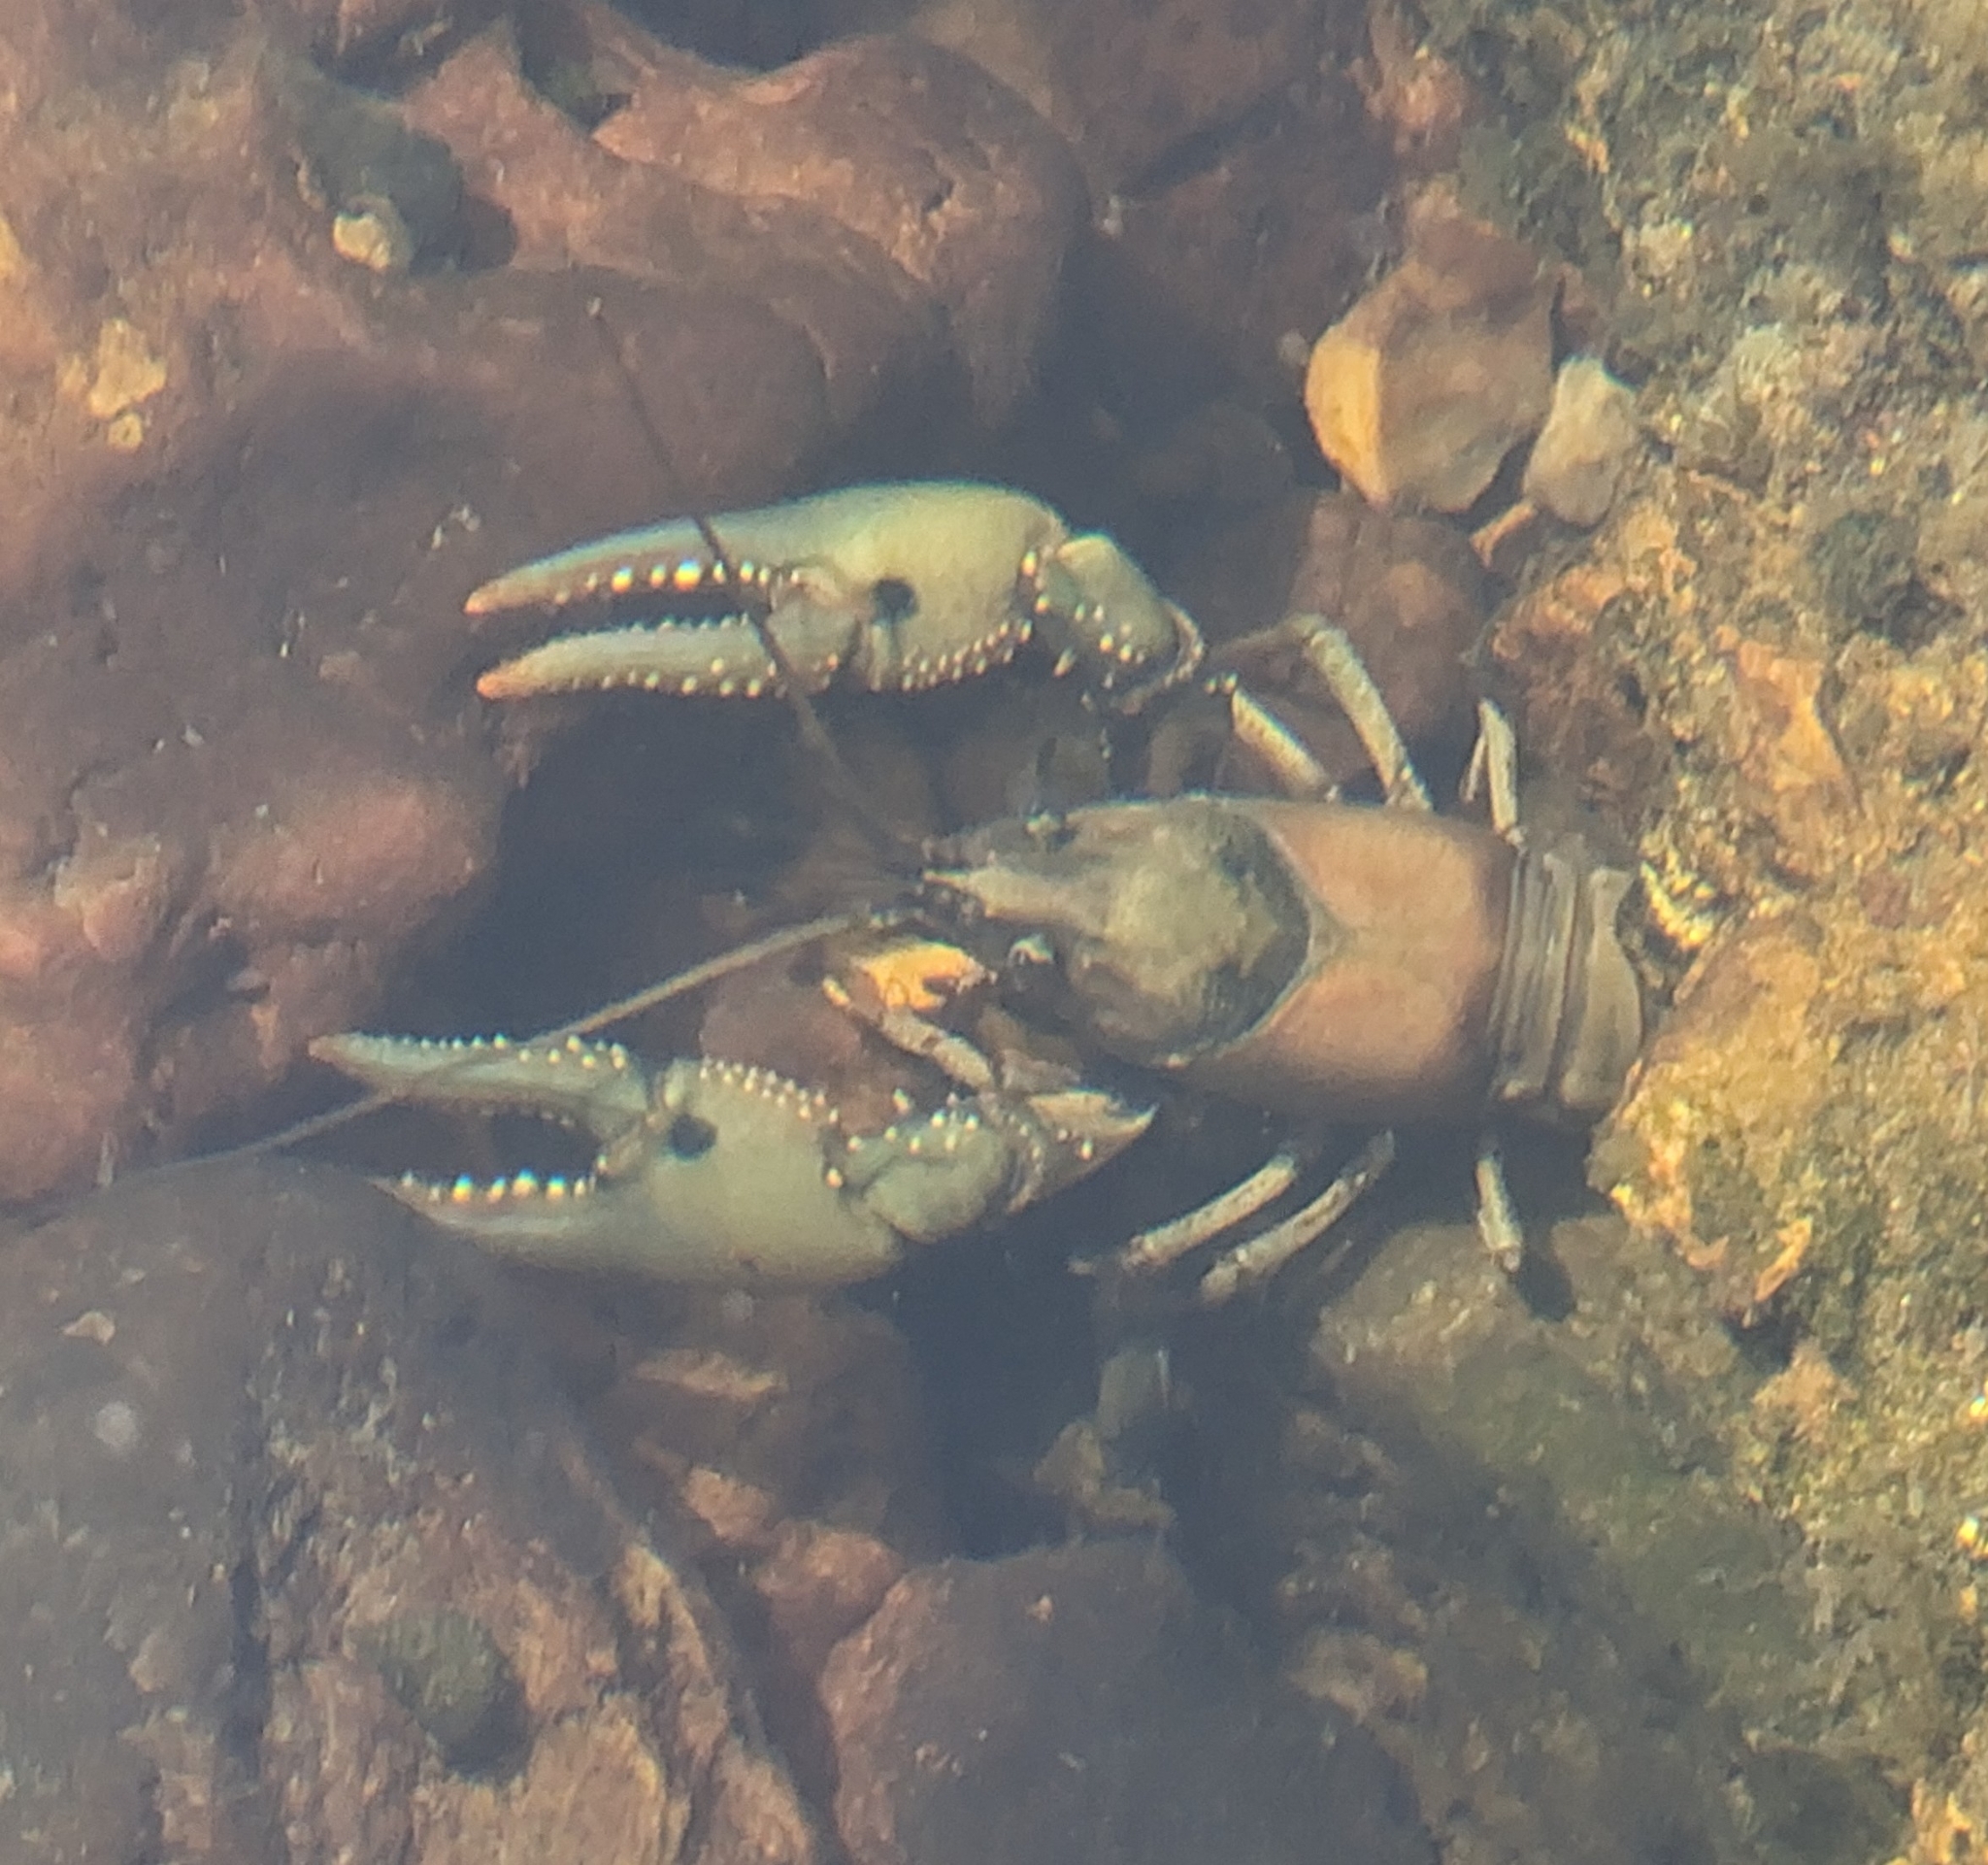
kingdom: Animalia
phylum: Arthropoda
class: Malacostraca
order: Decapoda
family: Cambaridae
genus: Faxonius
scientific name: Faxonius punctimanus
